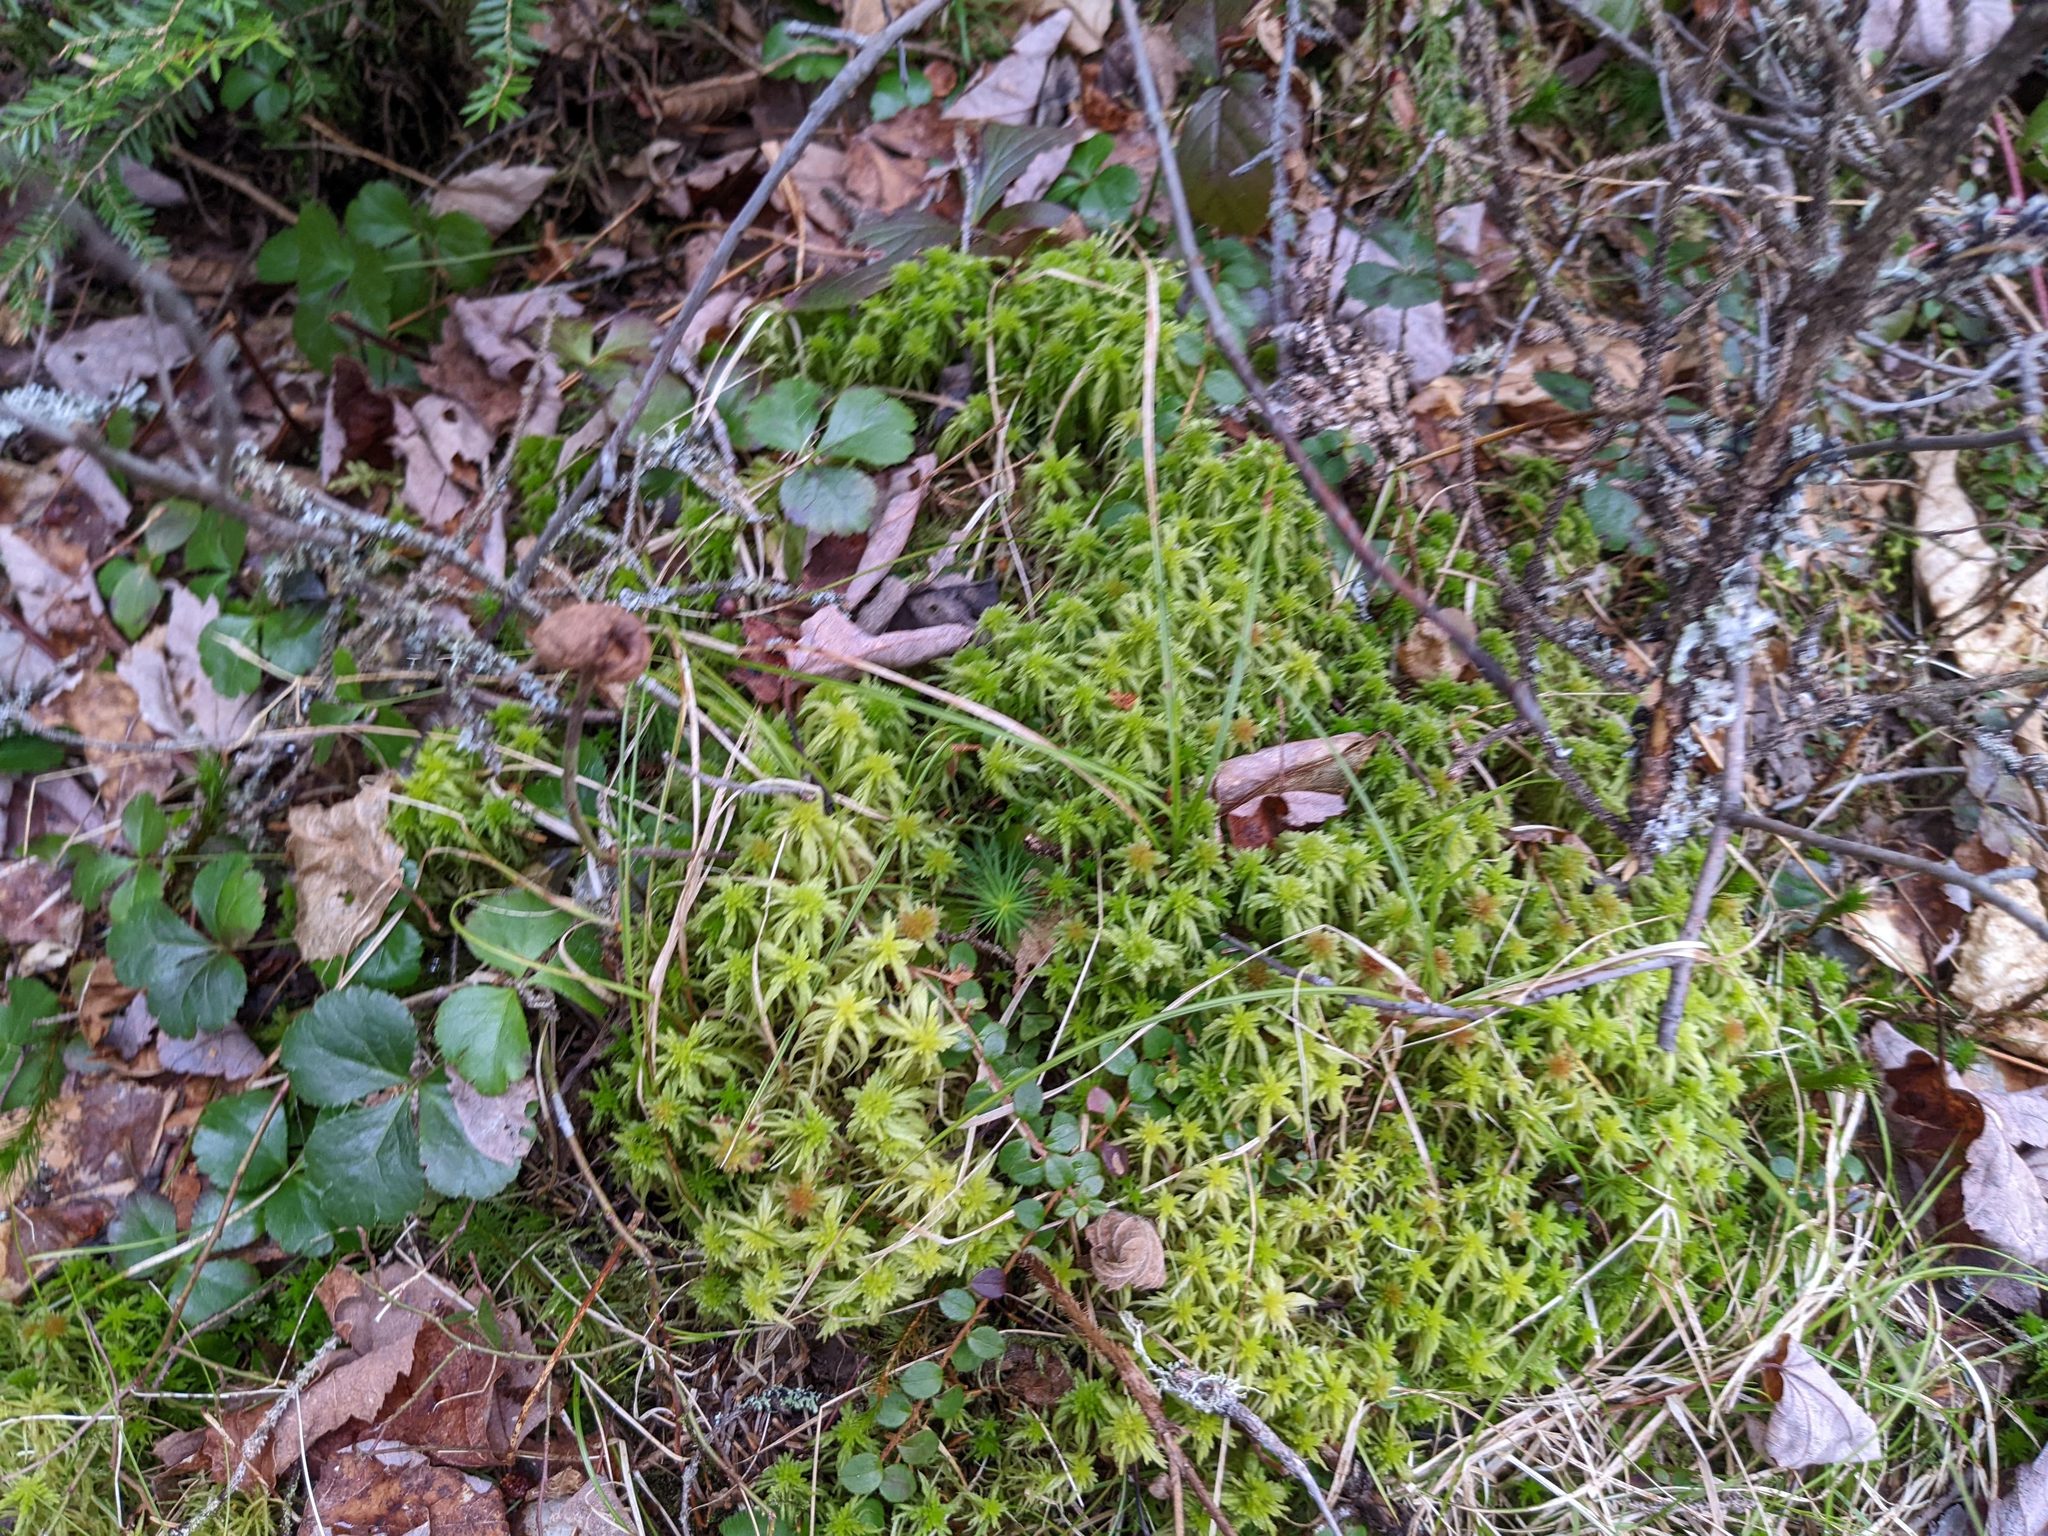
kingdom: Plantae
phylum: Tracheophyta
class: Magnoliopsida
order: Ranunculales
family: Ranunculaceae
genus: Coptis
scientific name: Coptis trifolia
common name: Canker-root
